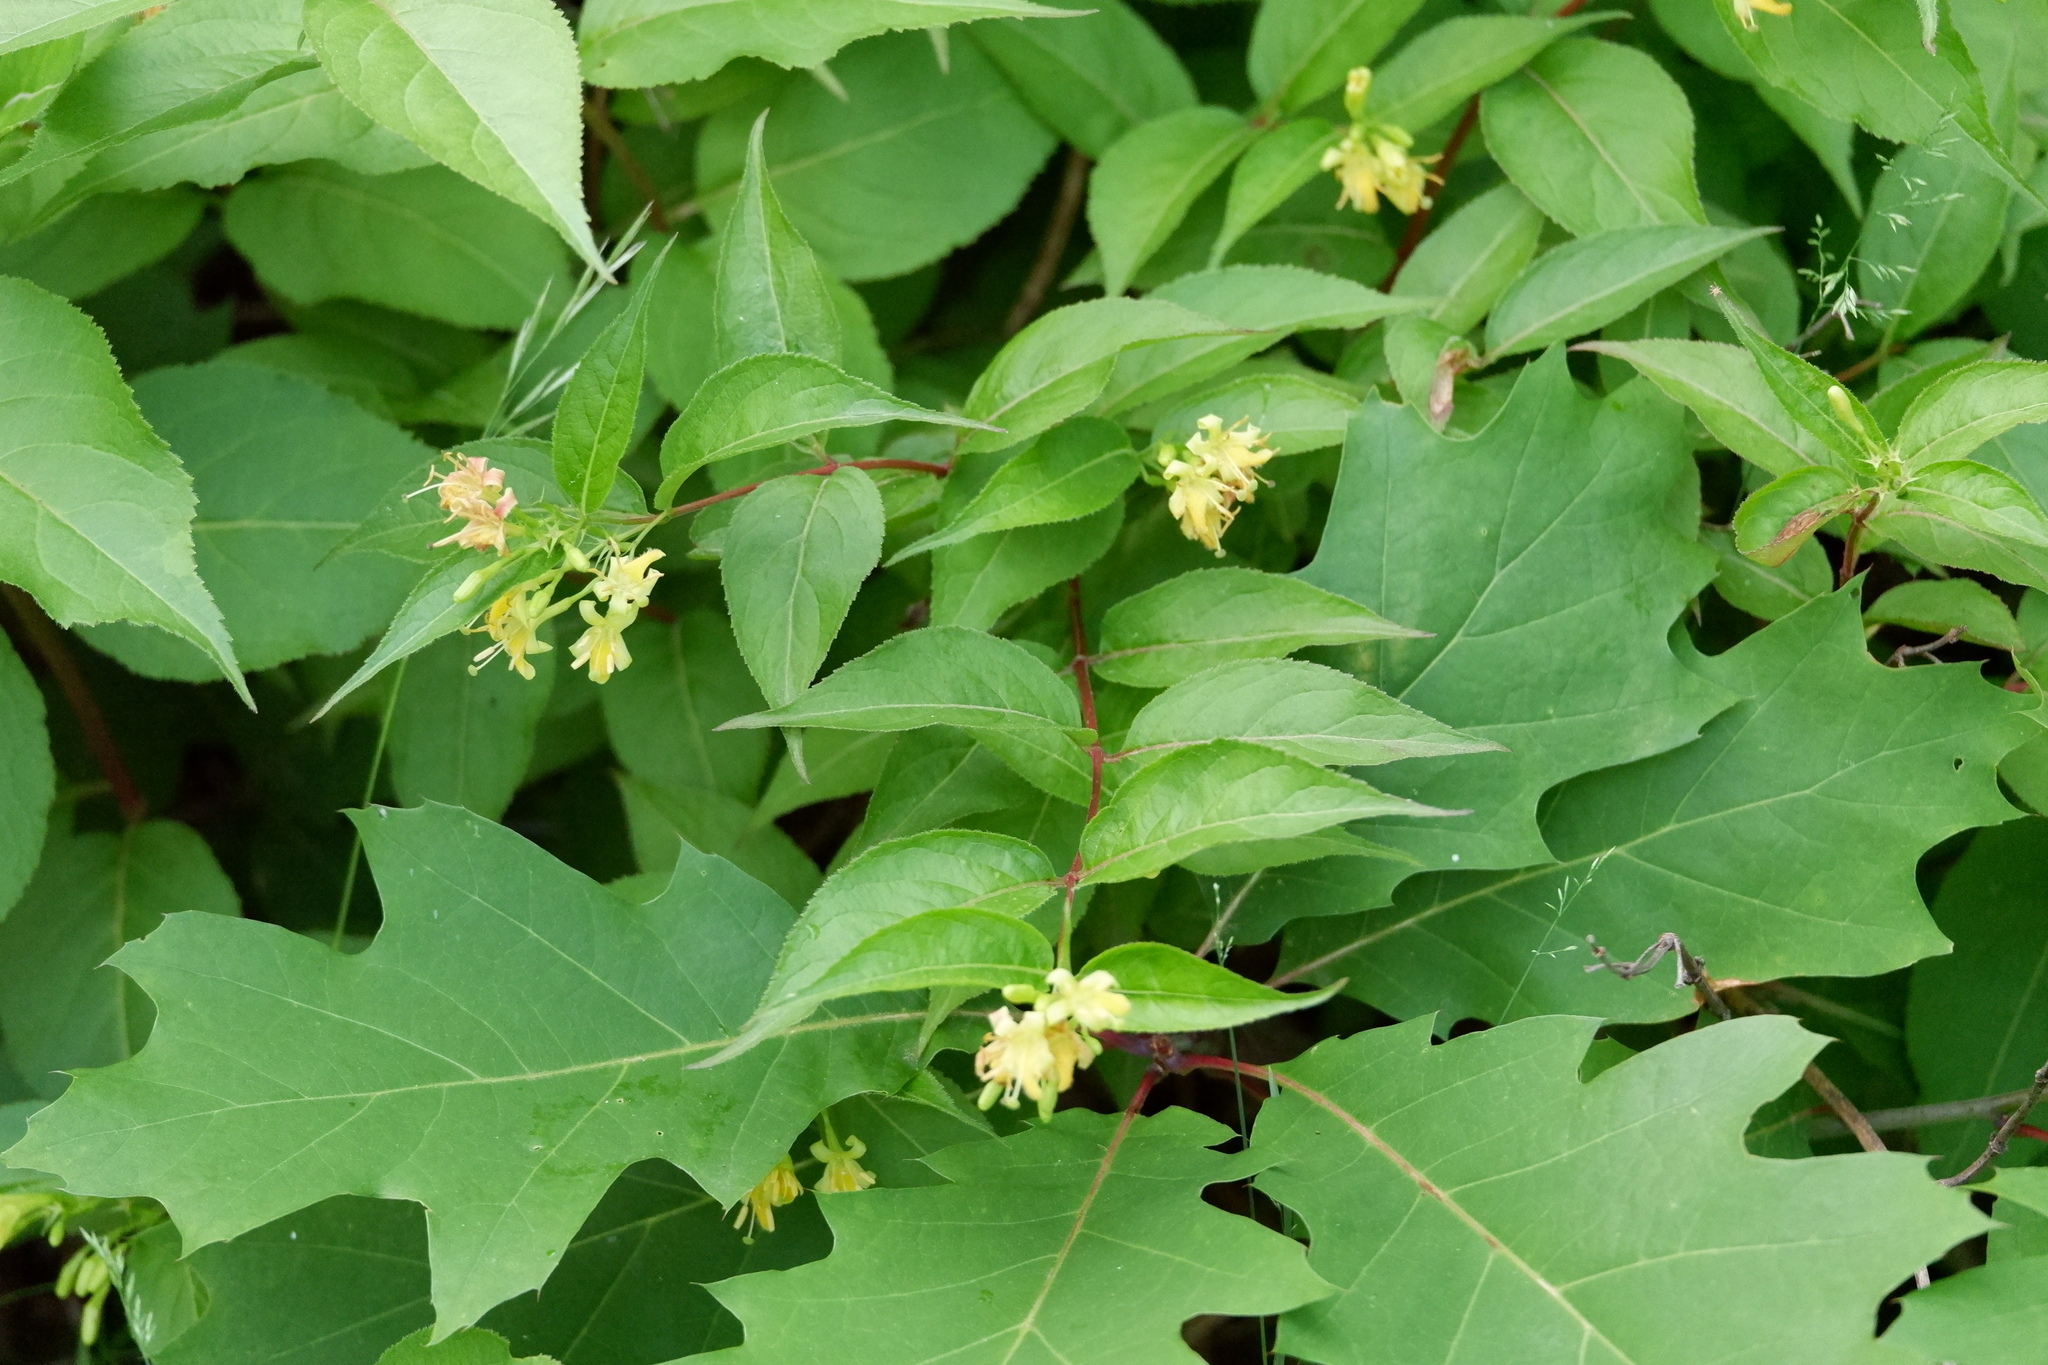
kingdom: Plantae
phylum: Tracheophyta
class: Magnoliopsida
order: Dipsacales
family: Caprifoliaceae
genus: Diervilla
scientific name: Diervilla lonicera
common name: Bush-honeysuckle
